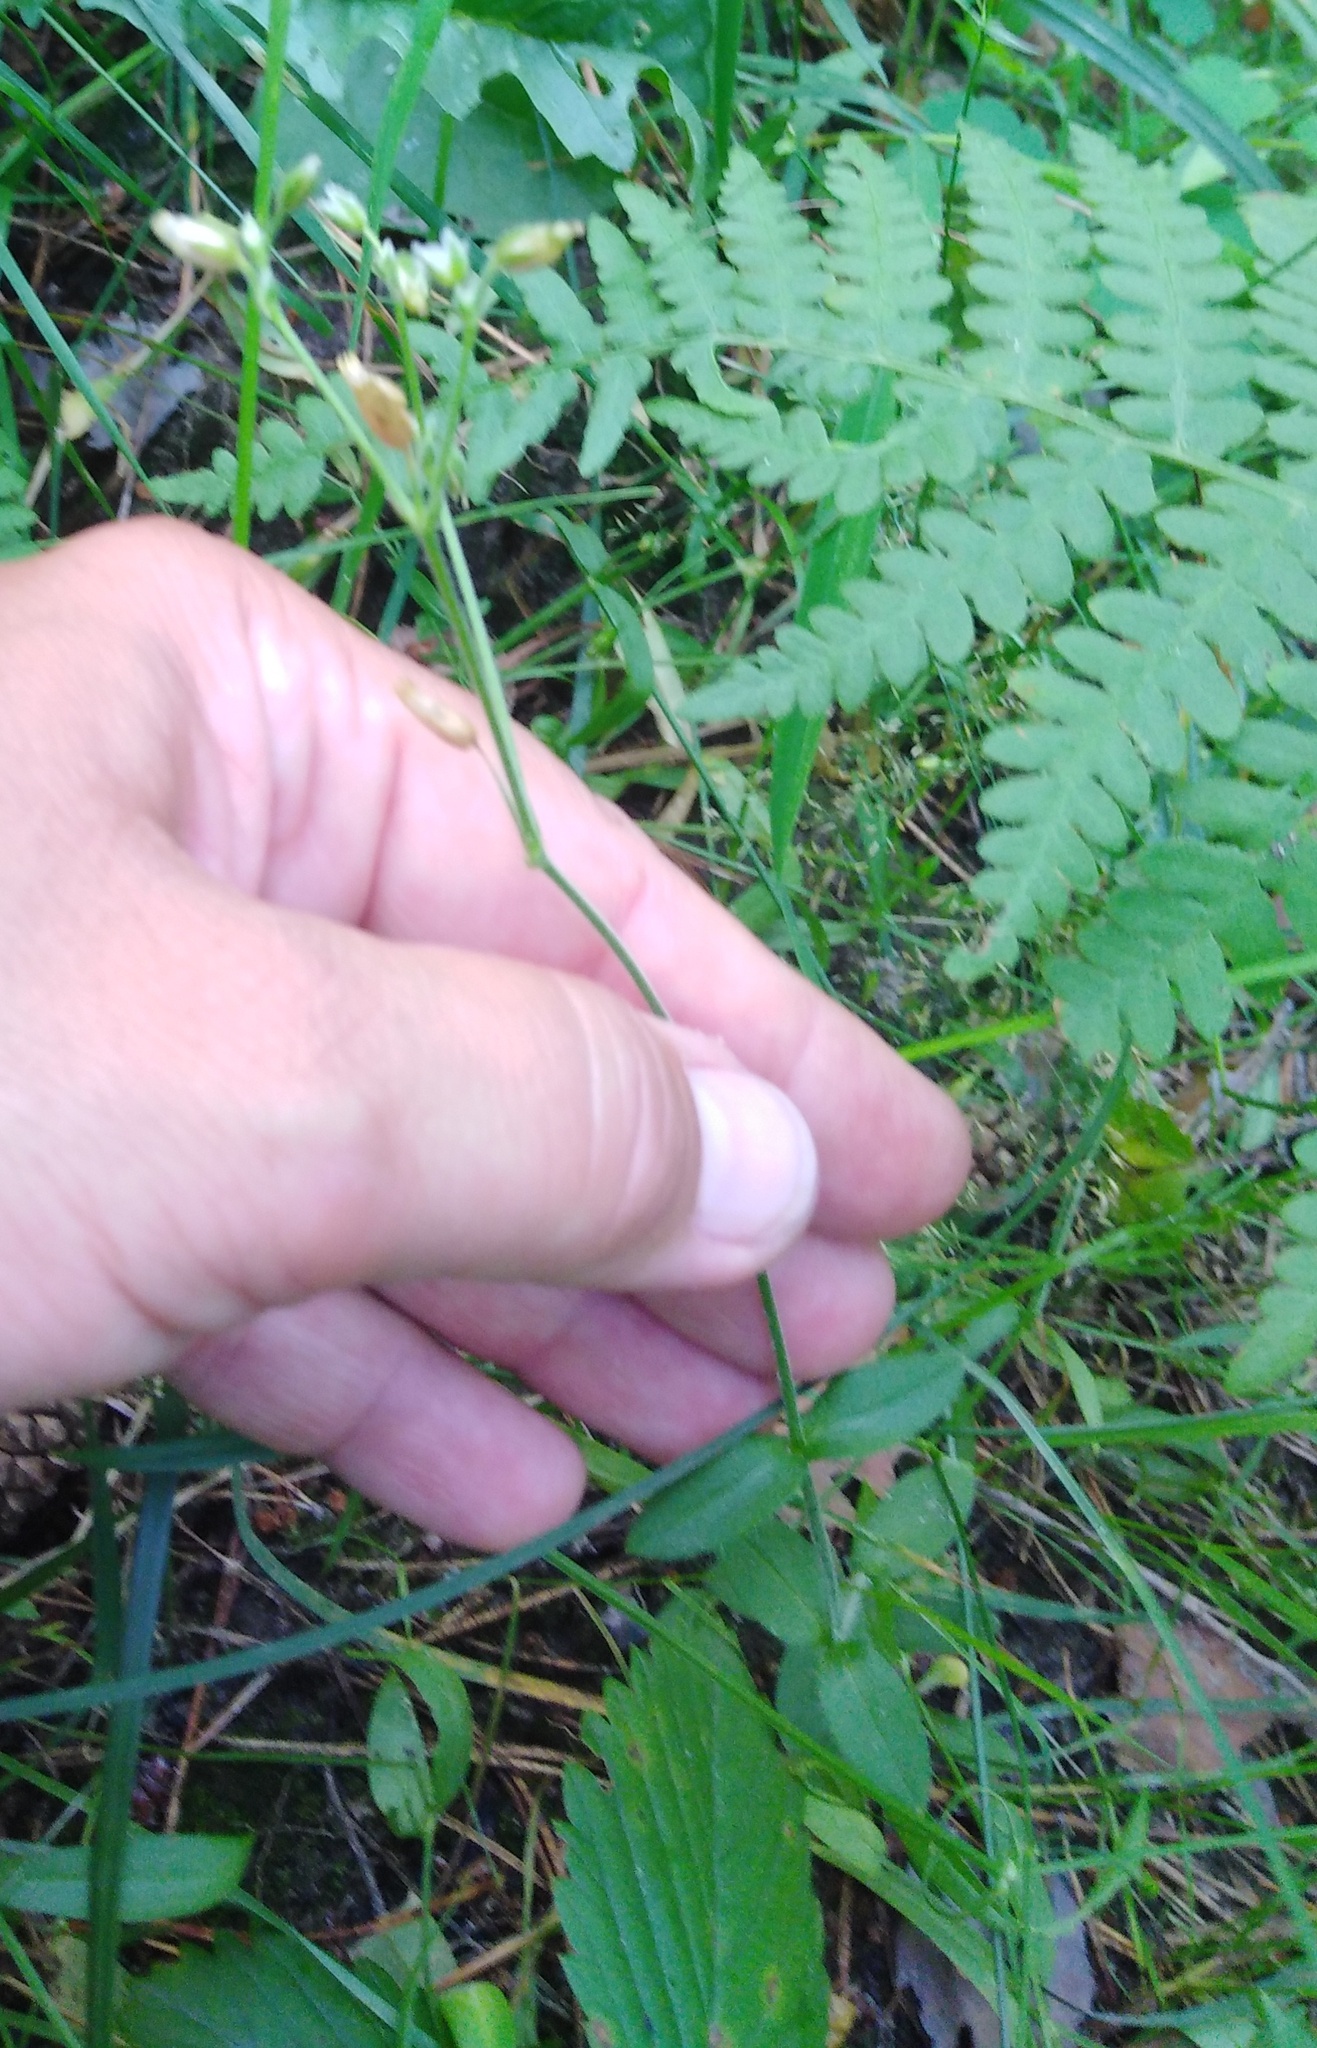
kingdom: Plantae
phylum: Tracheophyta
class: Magnoliopsida
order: Caryophyllales
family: Caryophyllaceae
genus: Cerastium
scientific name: Cerastium holosteoides
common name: Big chickweed
